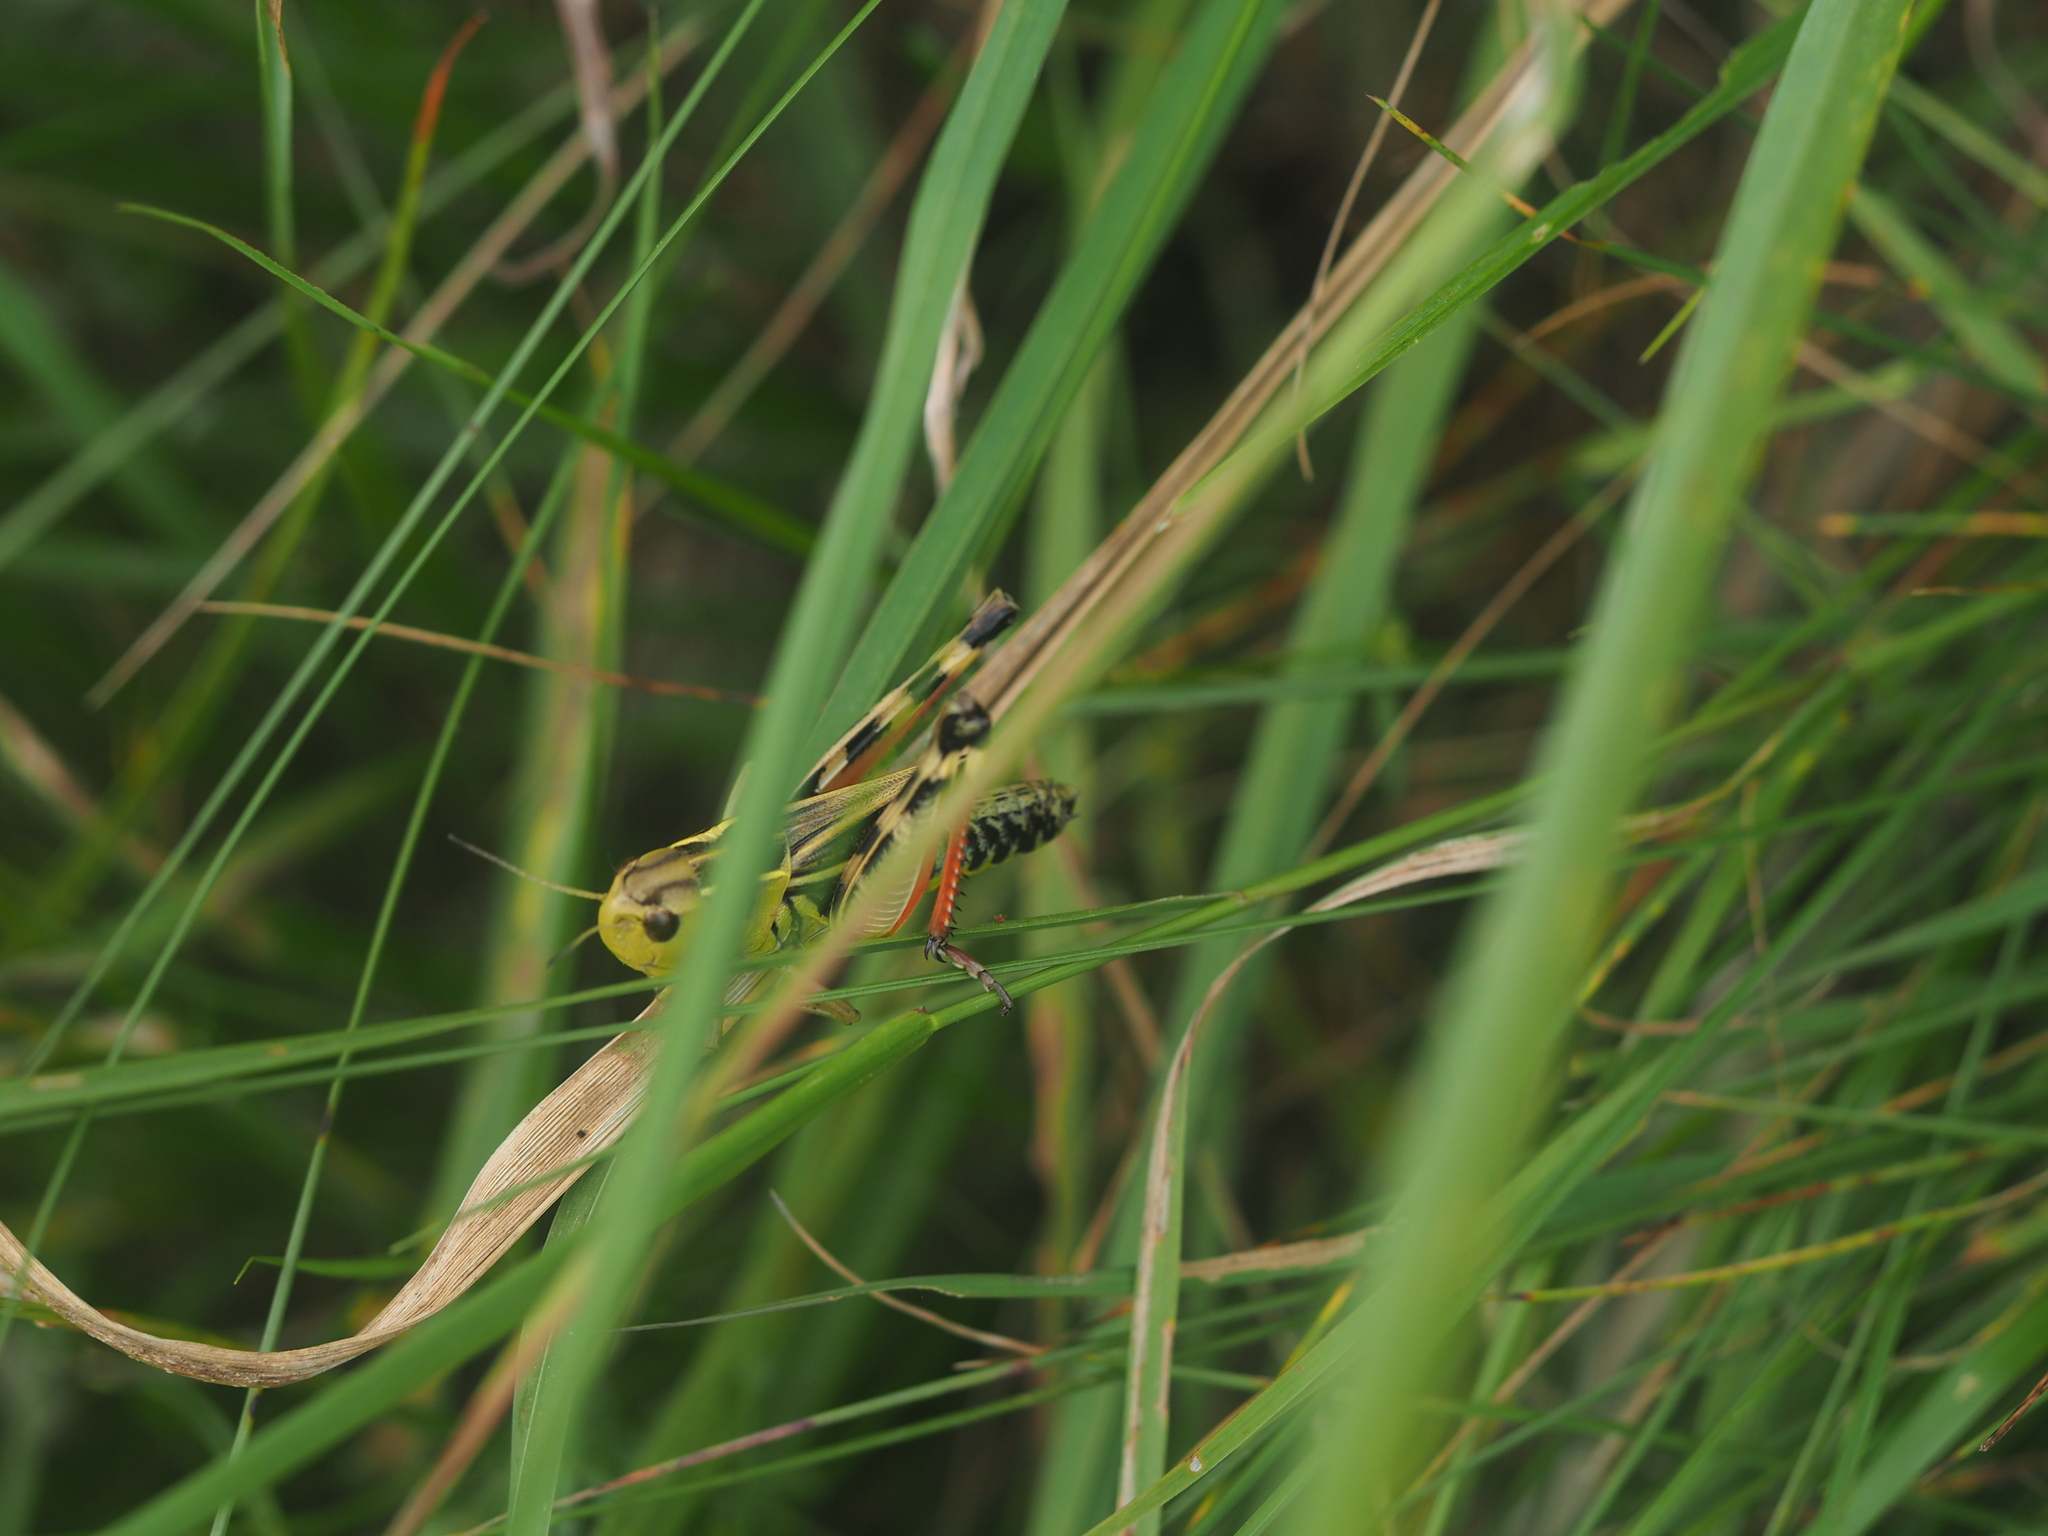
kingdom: Animalia
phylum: Arthropoda
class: Insecta
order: Orthoptera
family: Acrididae
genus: Arcyptera
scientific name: Arcyptera fusca
